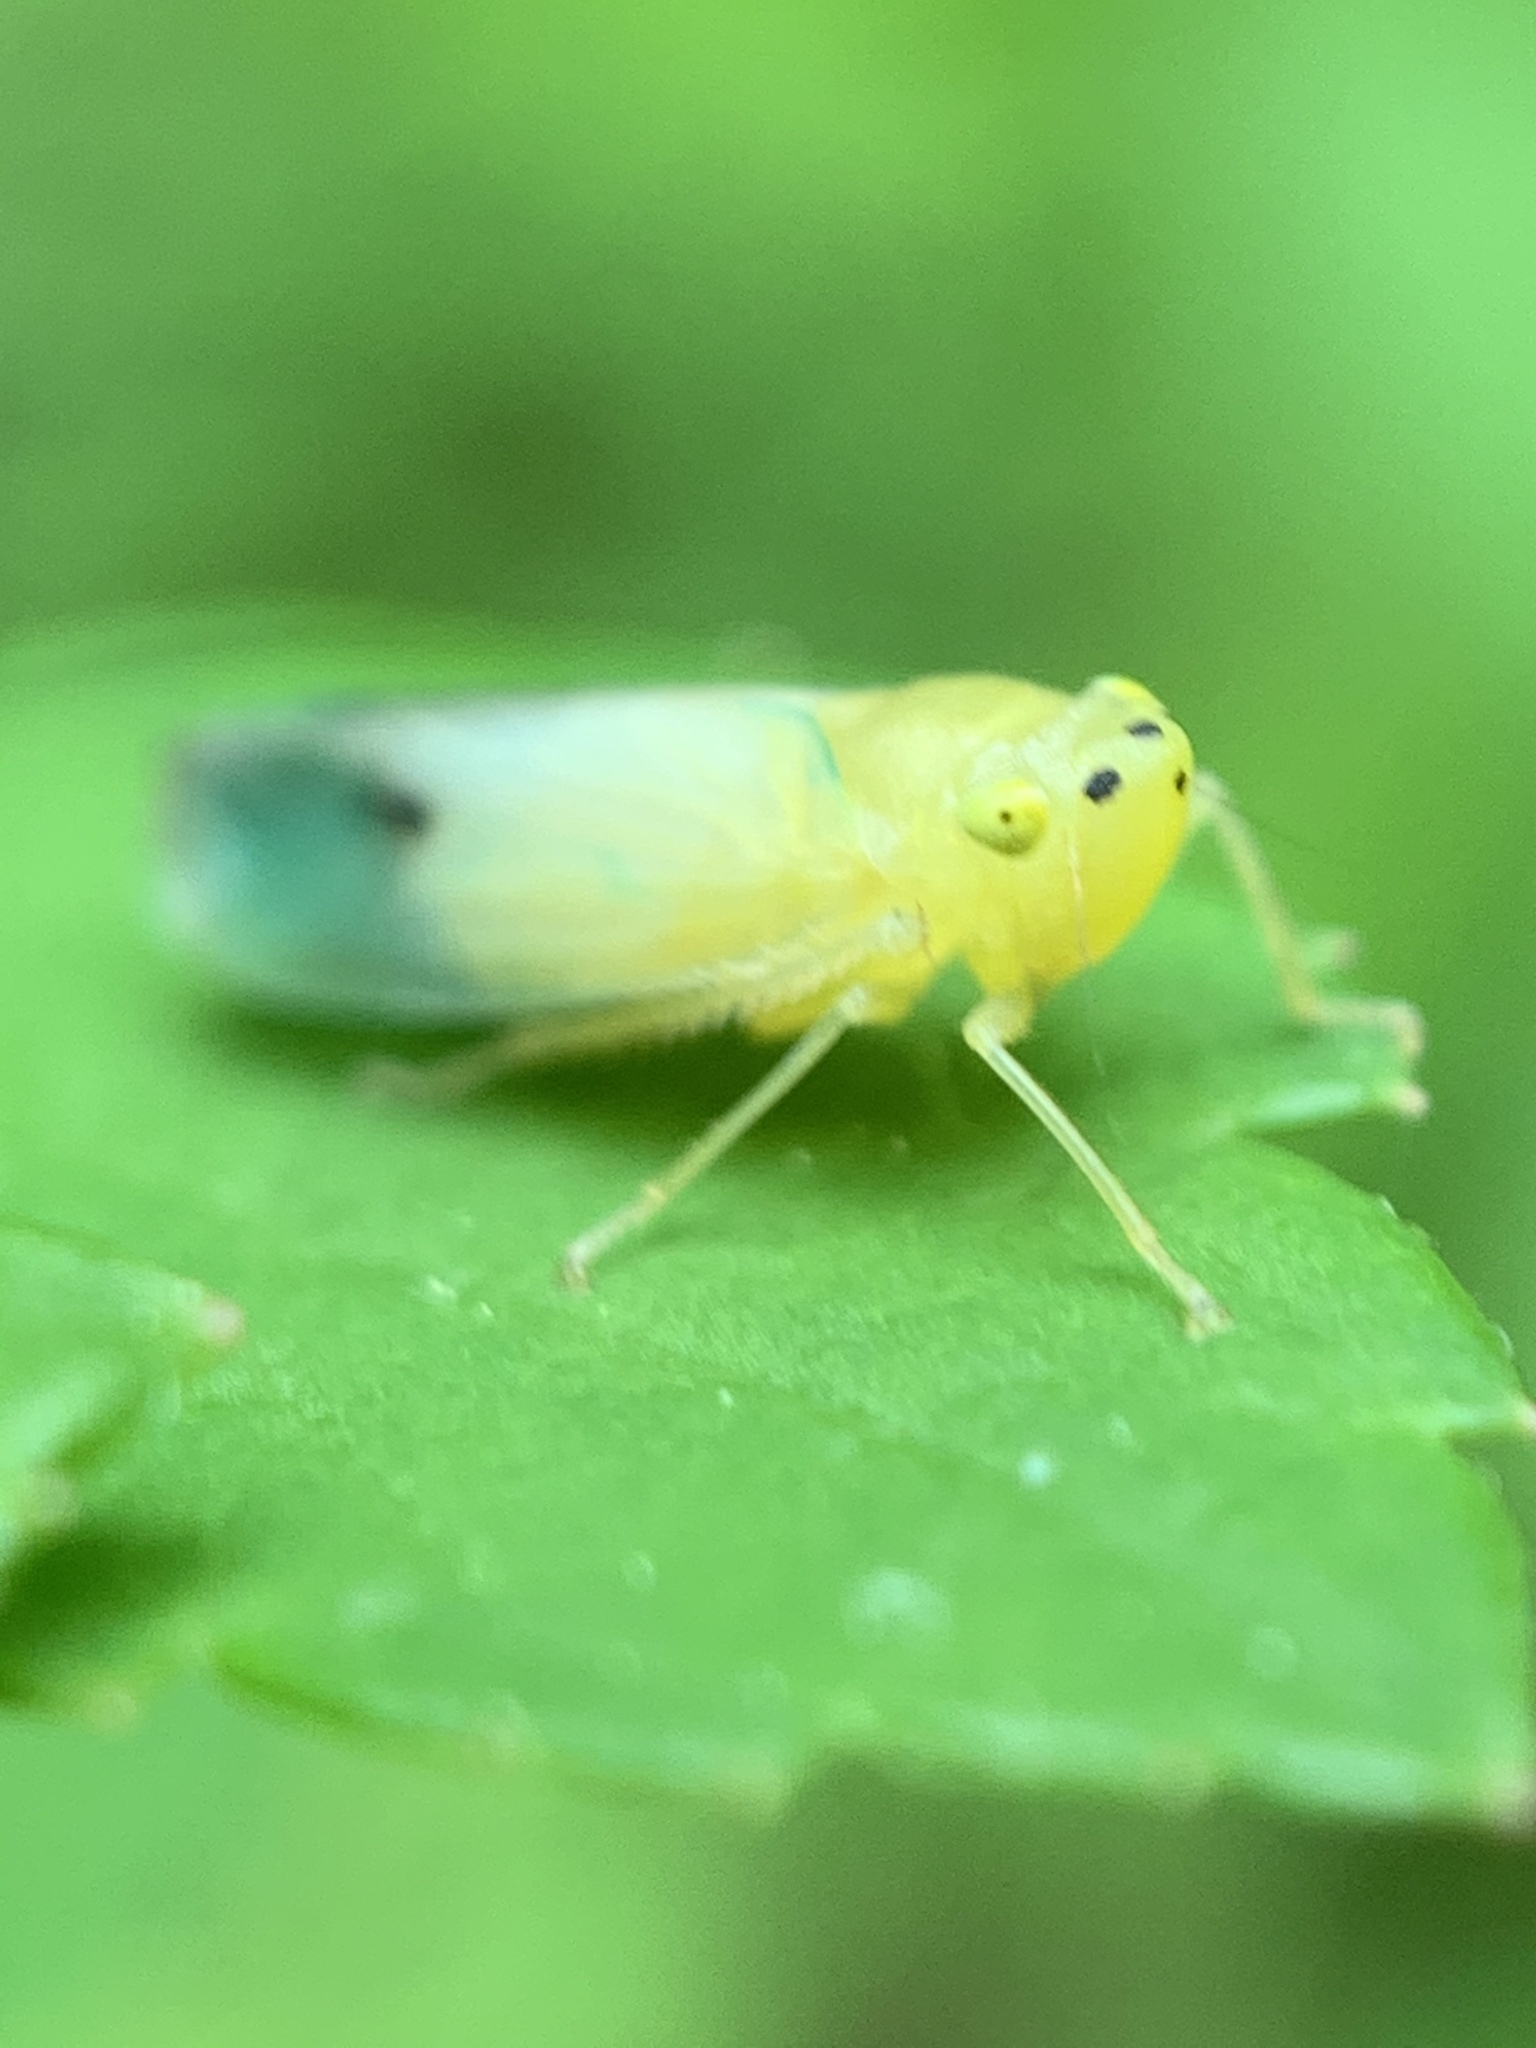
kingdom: Animalia
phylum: Arthropoda
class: Insecta
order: Hemiptera
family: Cicadellidae
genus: Pagaronia
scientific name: Pagaronia minor
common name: Leafhopper
